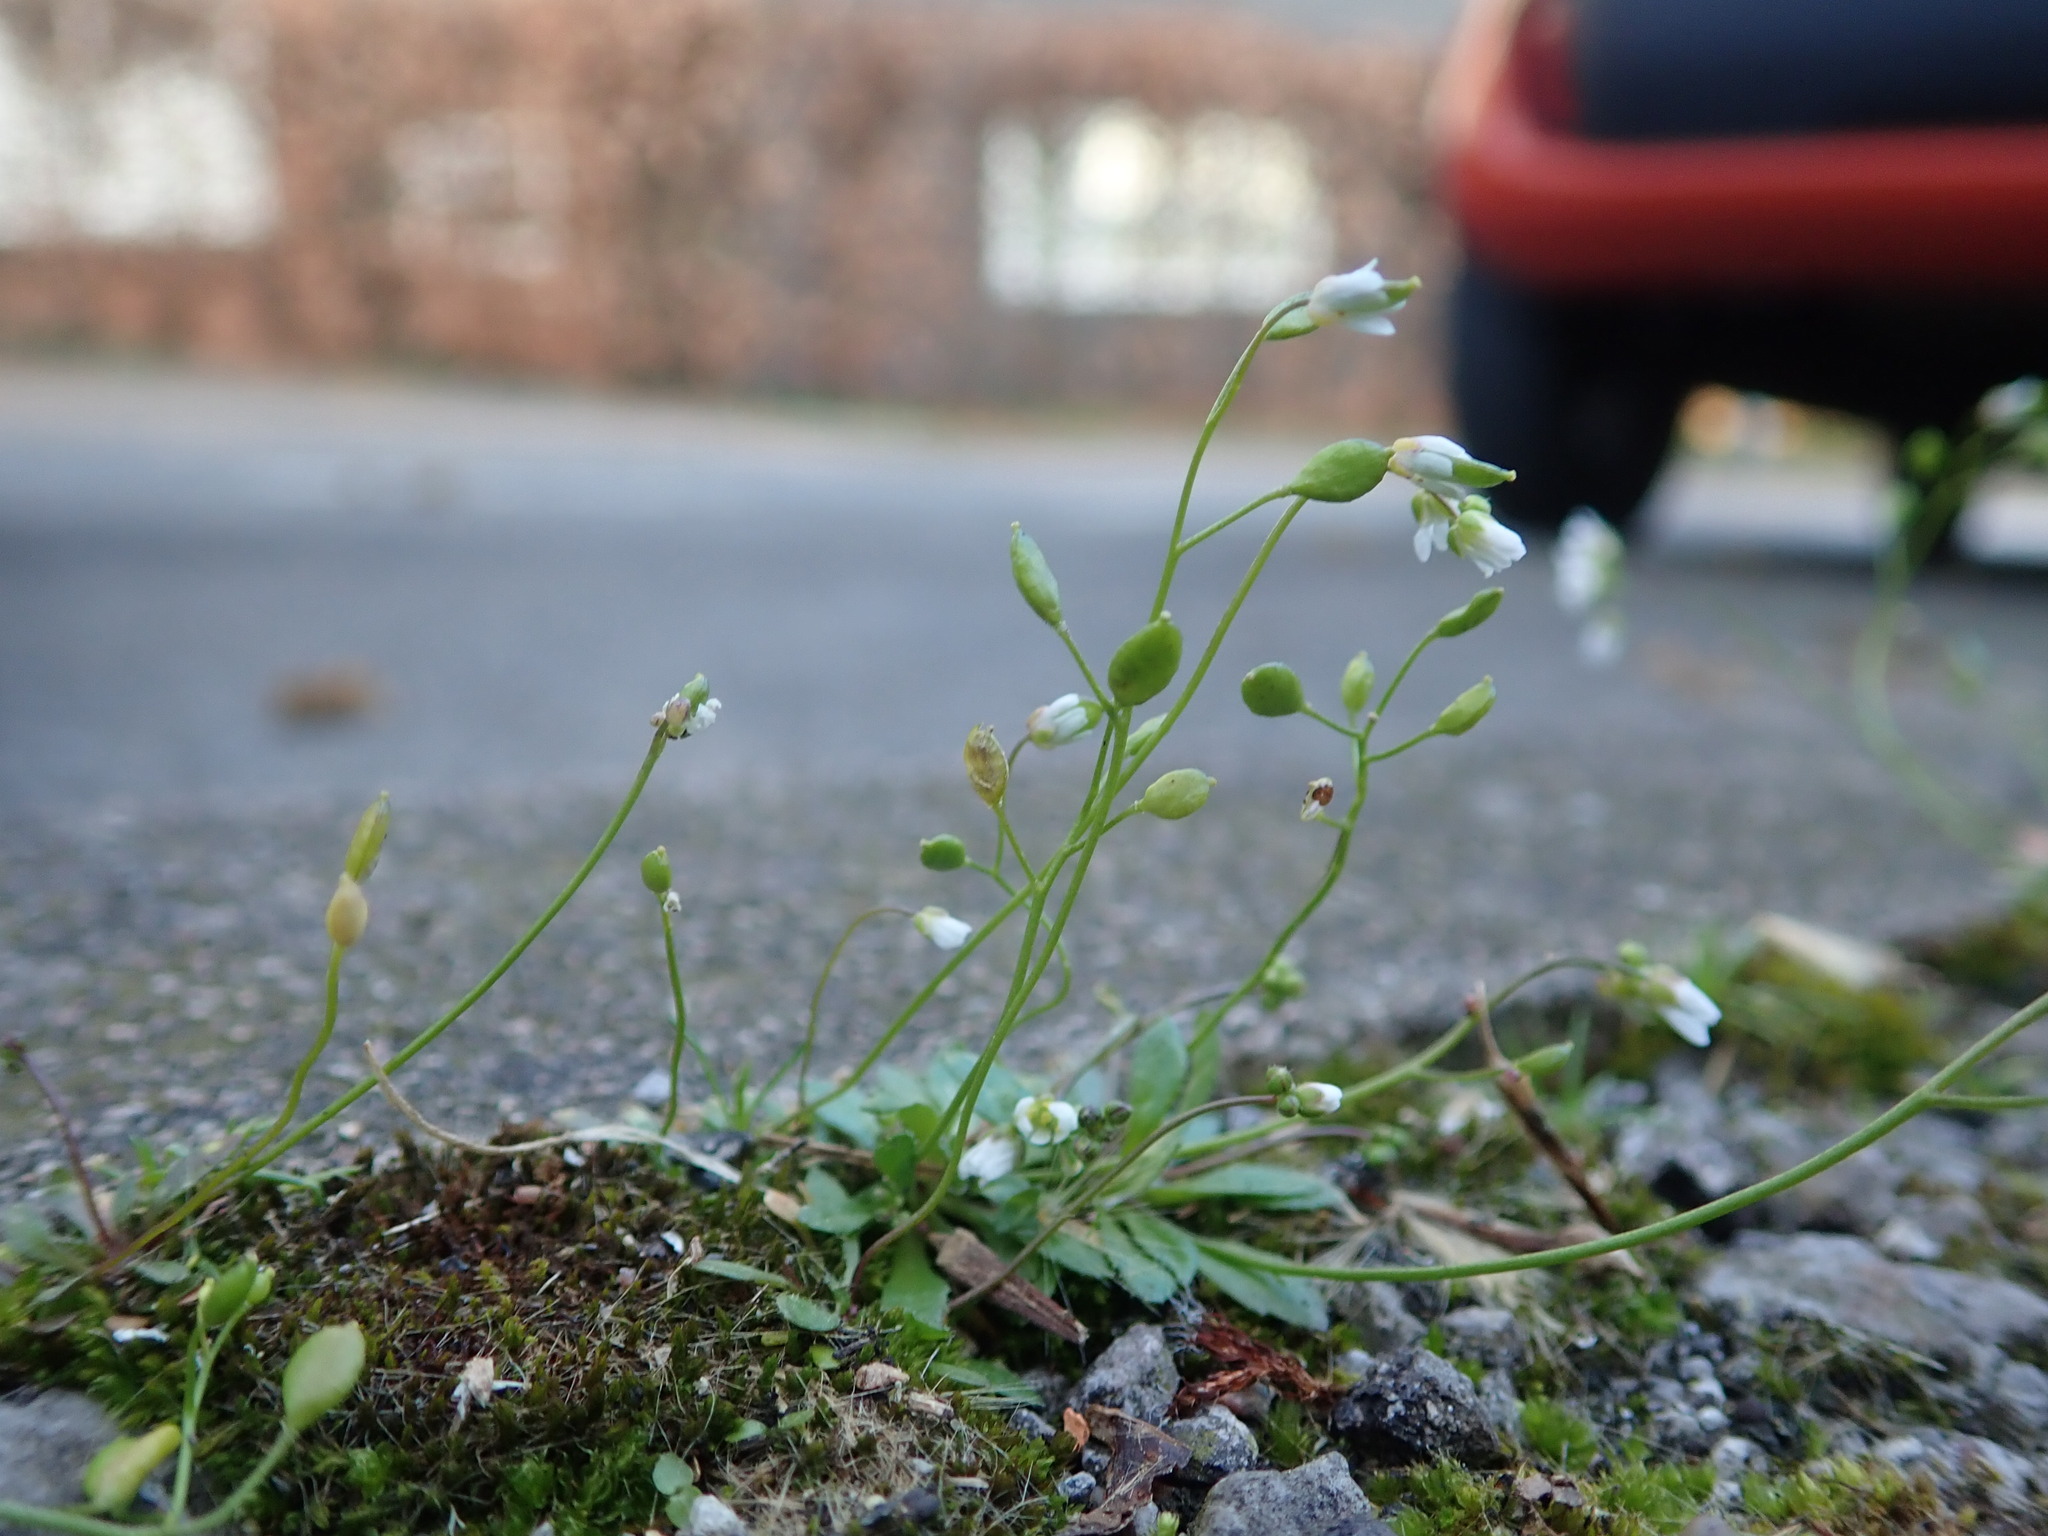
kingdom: Plantae
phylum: Tracheophyta
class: Magnoliopsida
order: Brassicales
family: Brassicaceae
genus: Draba
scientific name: Draba verna
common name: Spring draba
